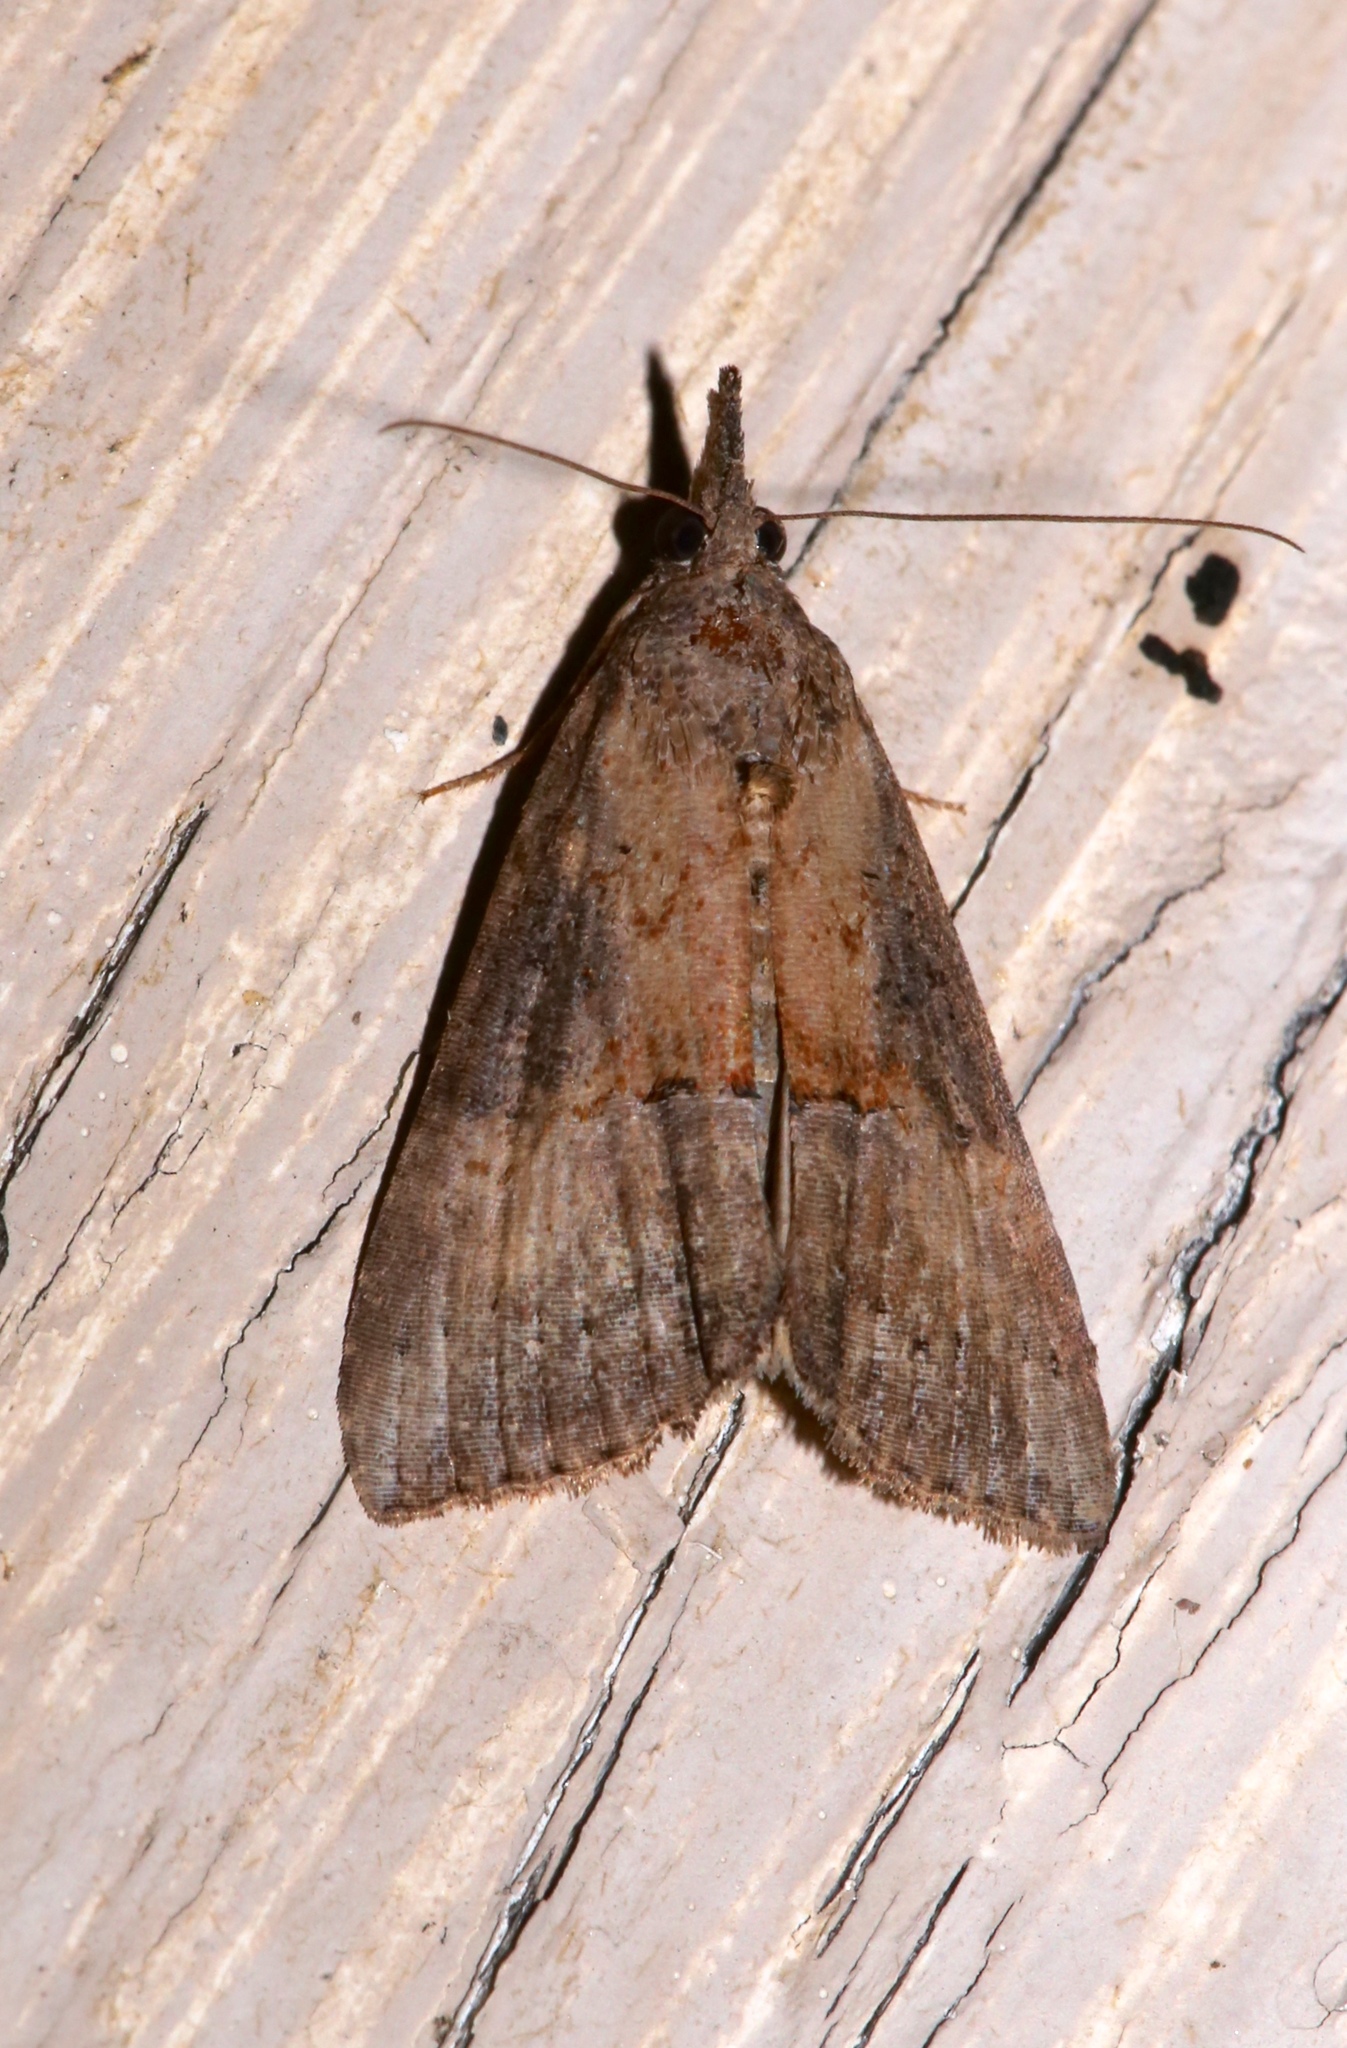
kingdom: Animalia
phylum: Arthropoda
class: Insecta
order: Lepidoptera
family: Erebidae
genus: Hypena
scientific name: Hypena scabra
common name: Green cloverworm
